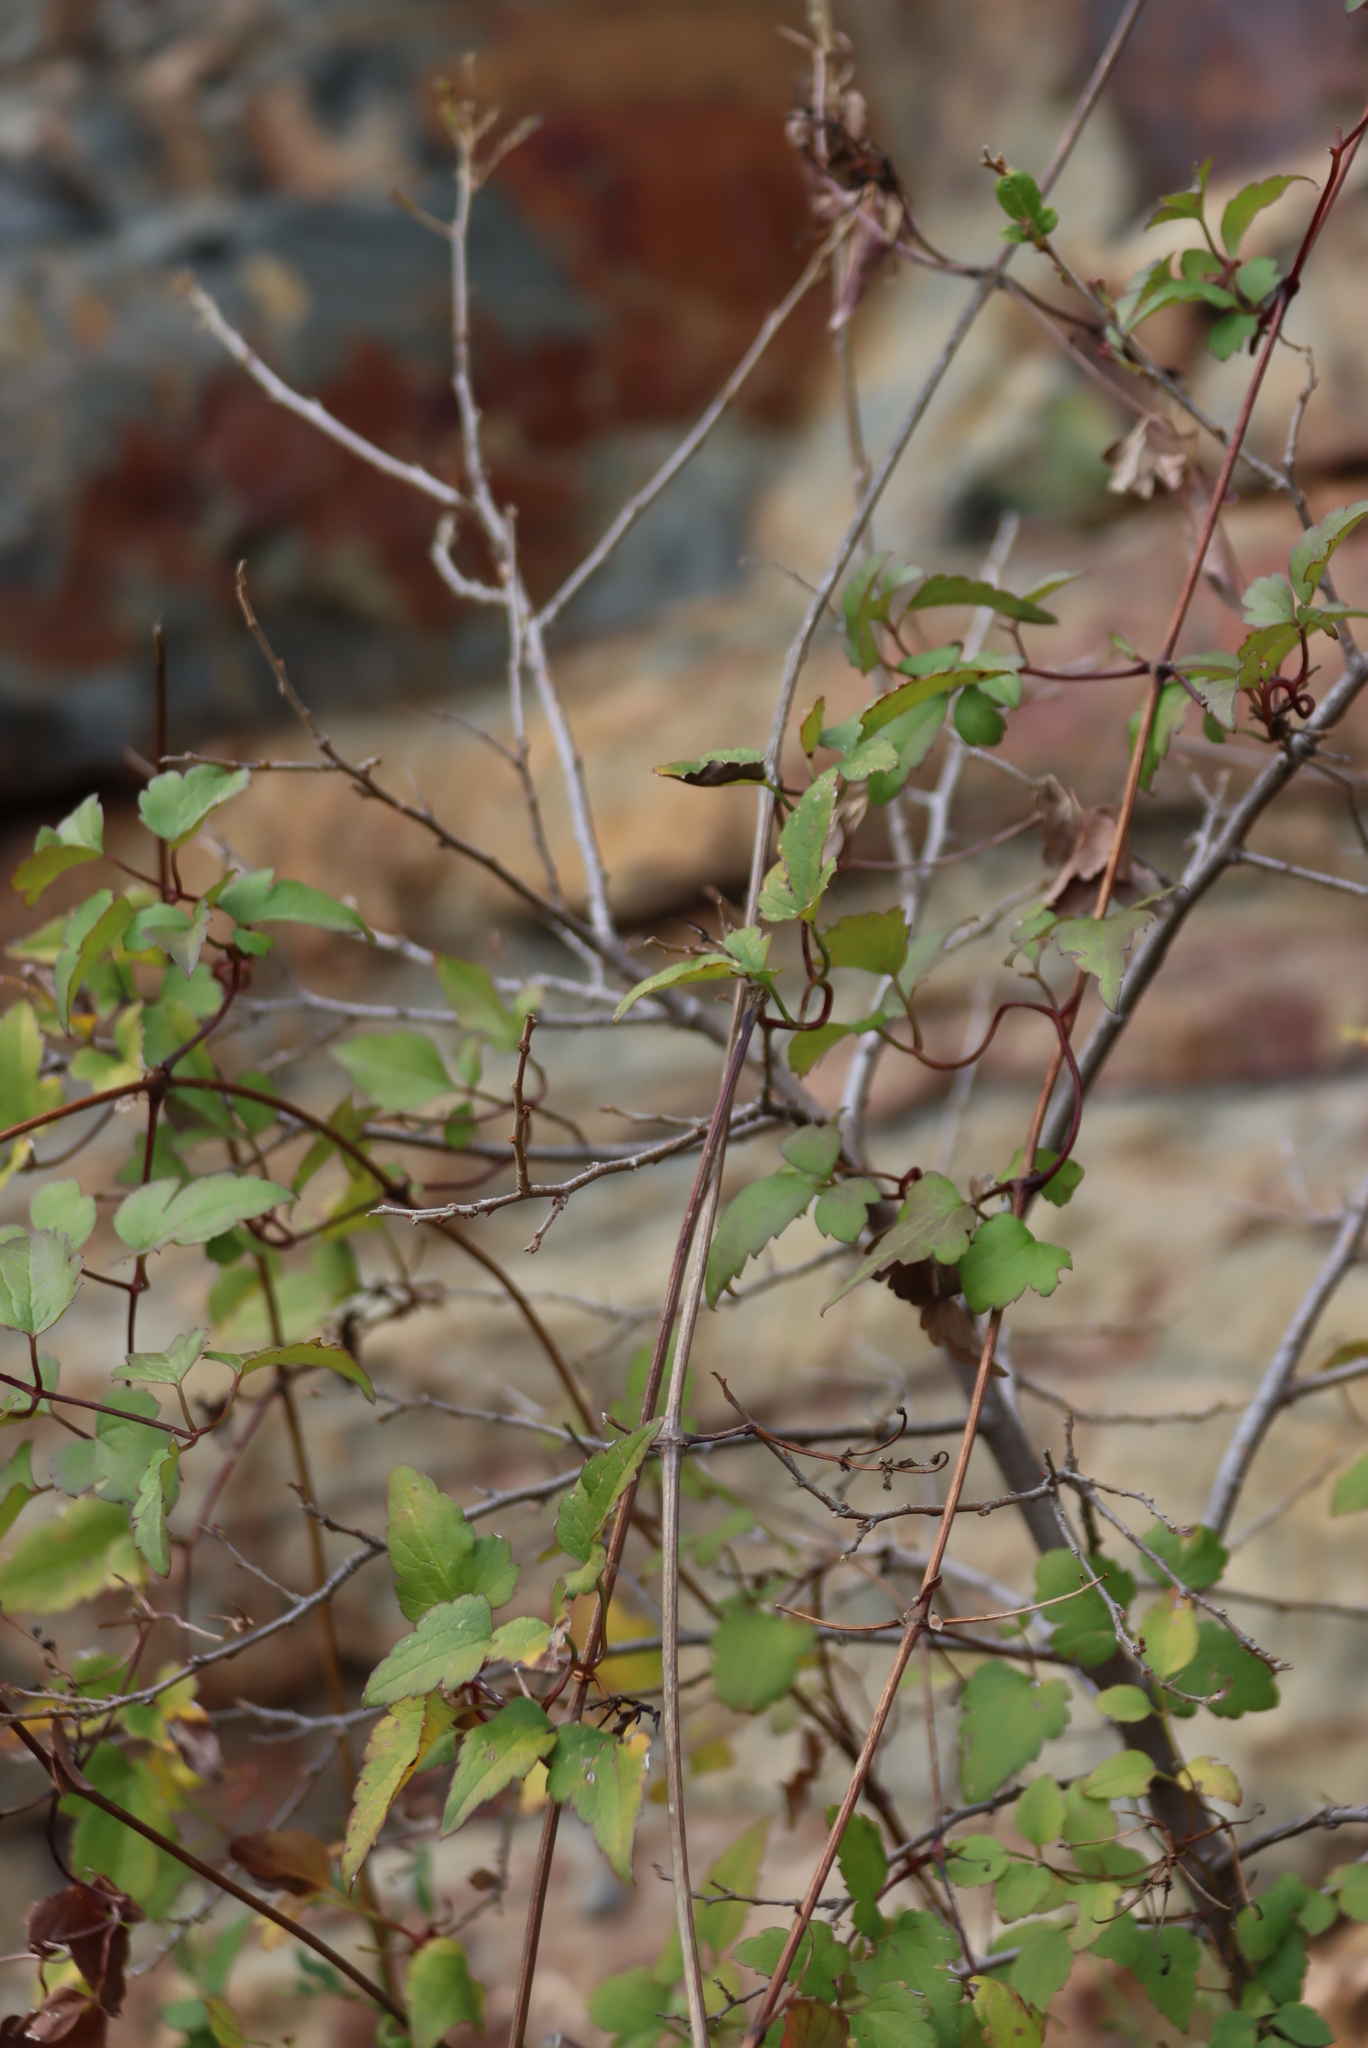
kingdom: Plantae
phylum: Tracheophyta
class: Magnoliopsida
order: Ranunculales
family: Ranunculaceae
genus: Clematis
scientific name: Clematis brachiata
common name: Traveler's-joy
